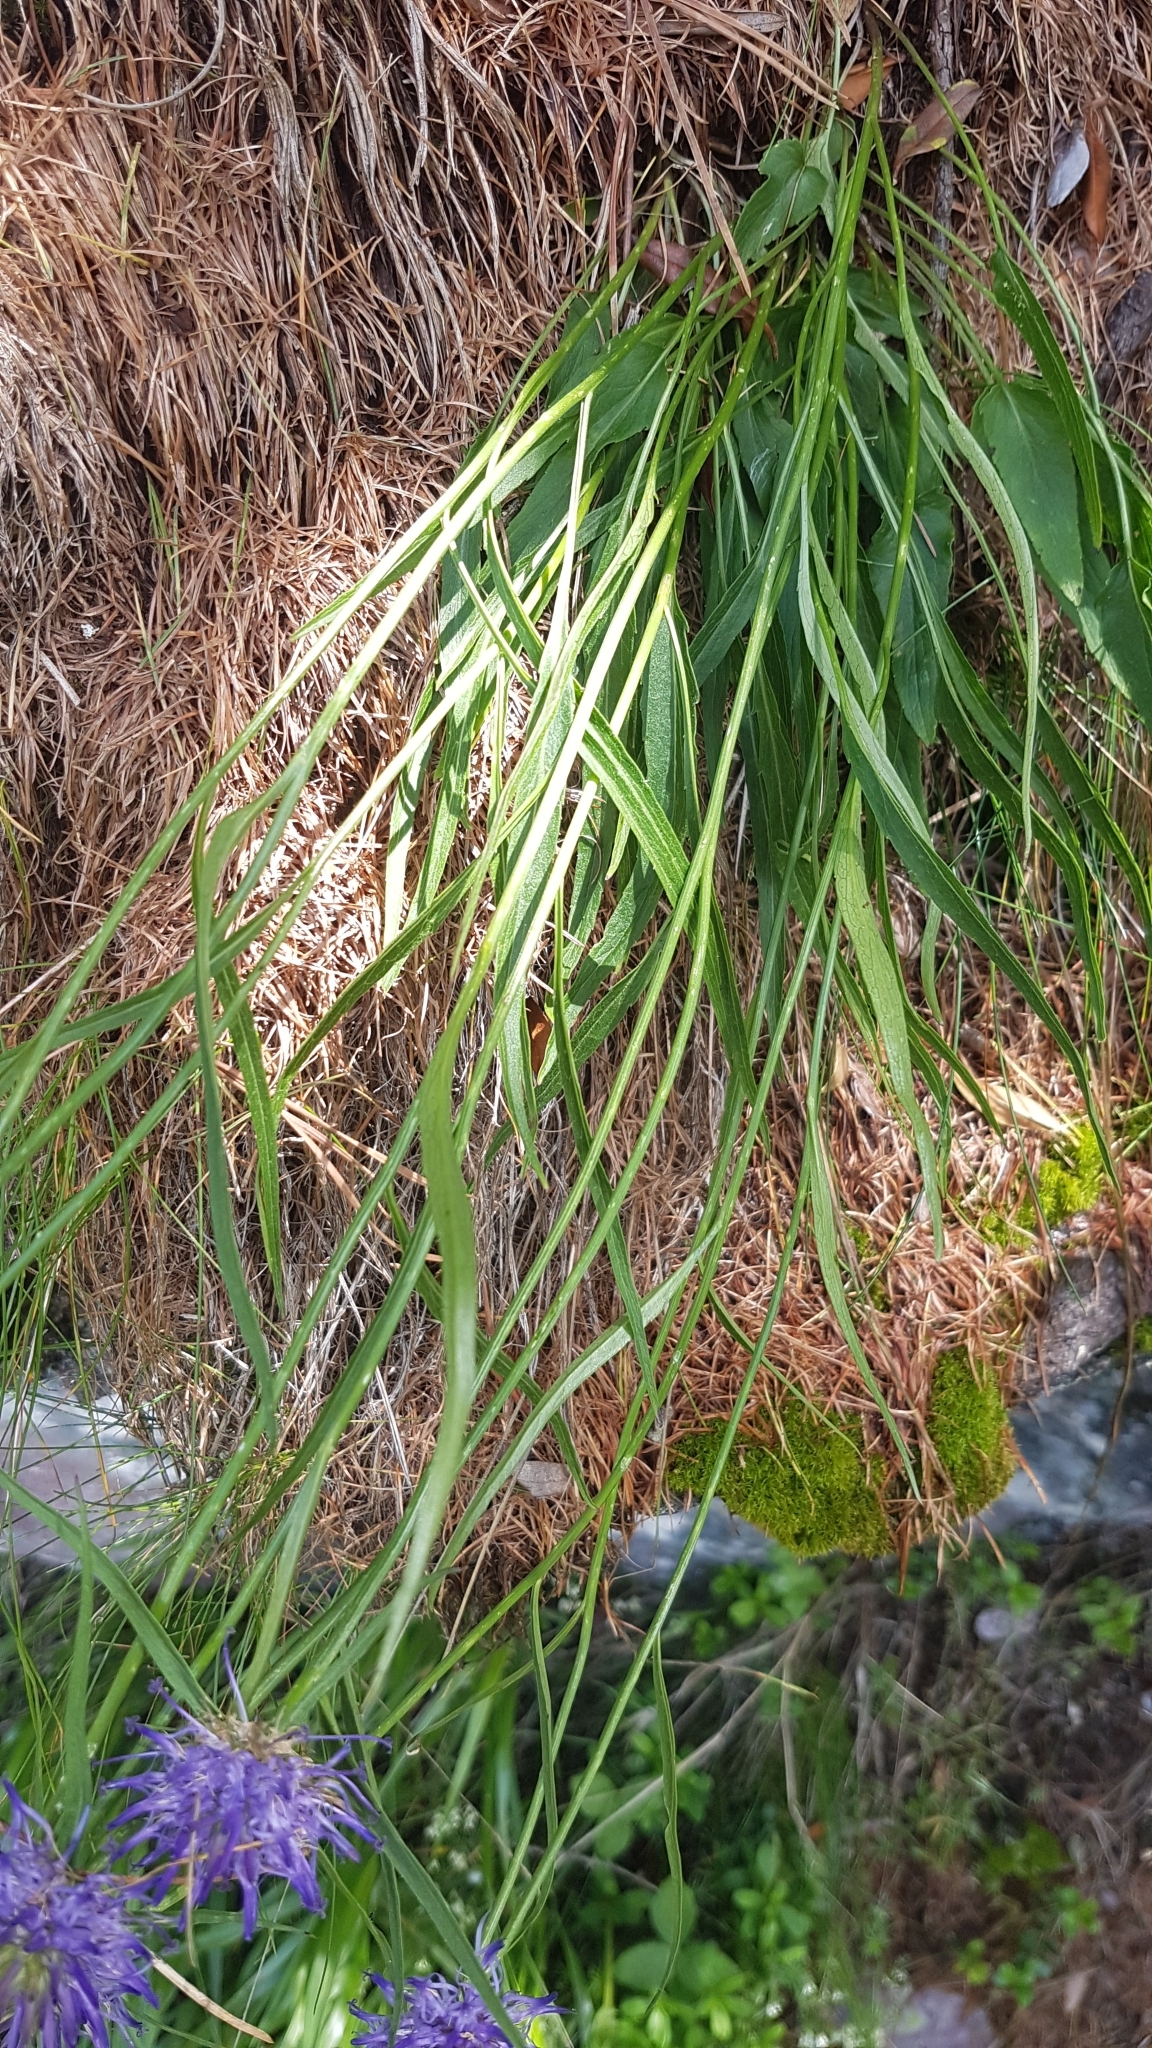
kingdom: Plantae
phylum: Tracheophyta
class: Magnoliopsida
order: Asterales
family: Campanulaceae
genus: Phyteuma
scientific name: Phyteuma scheuchzeri
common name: Oxford rampion
